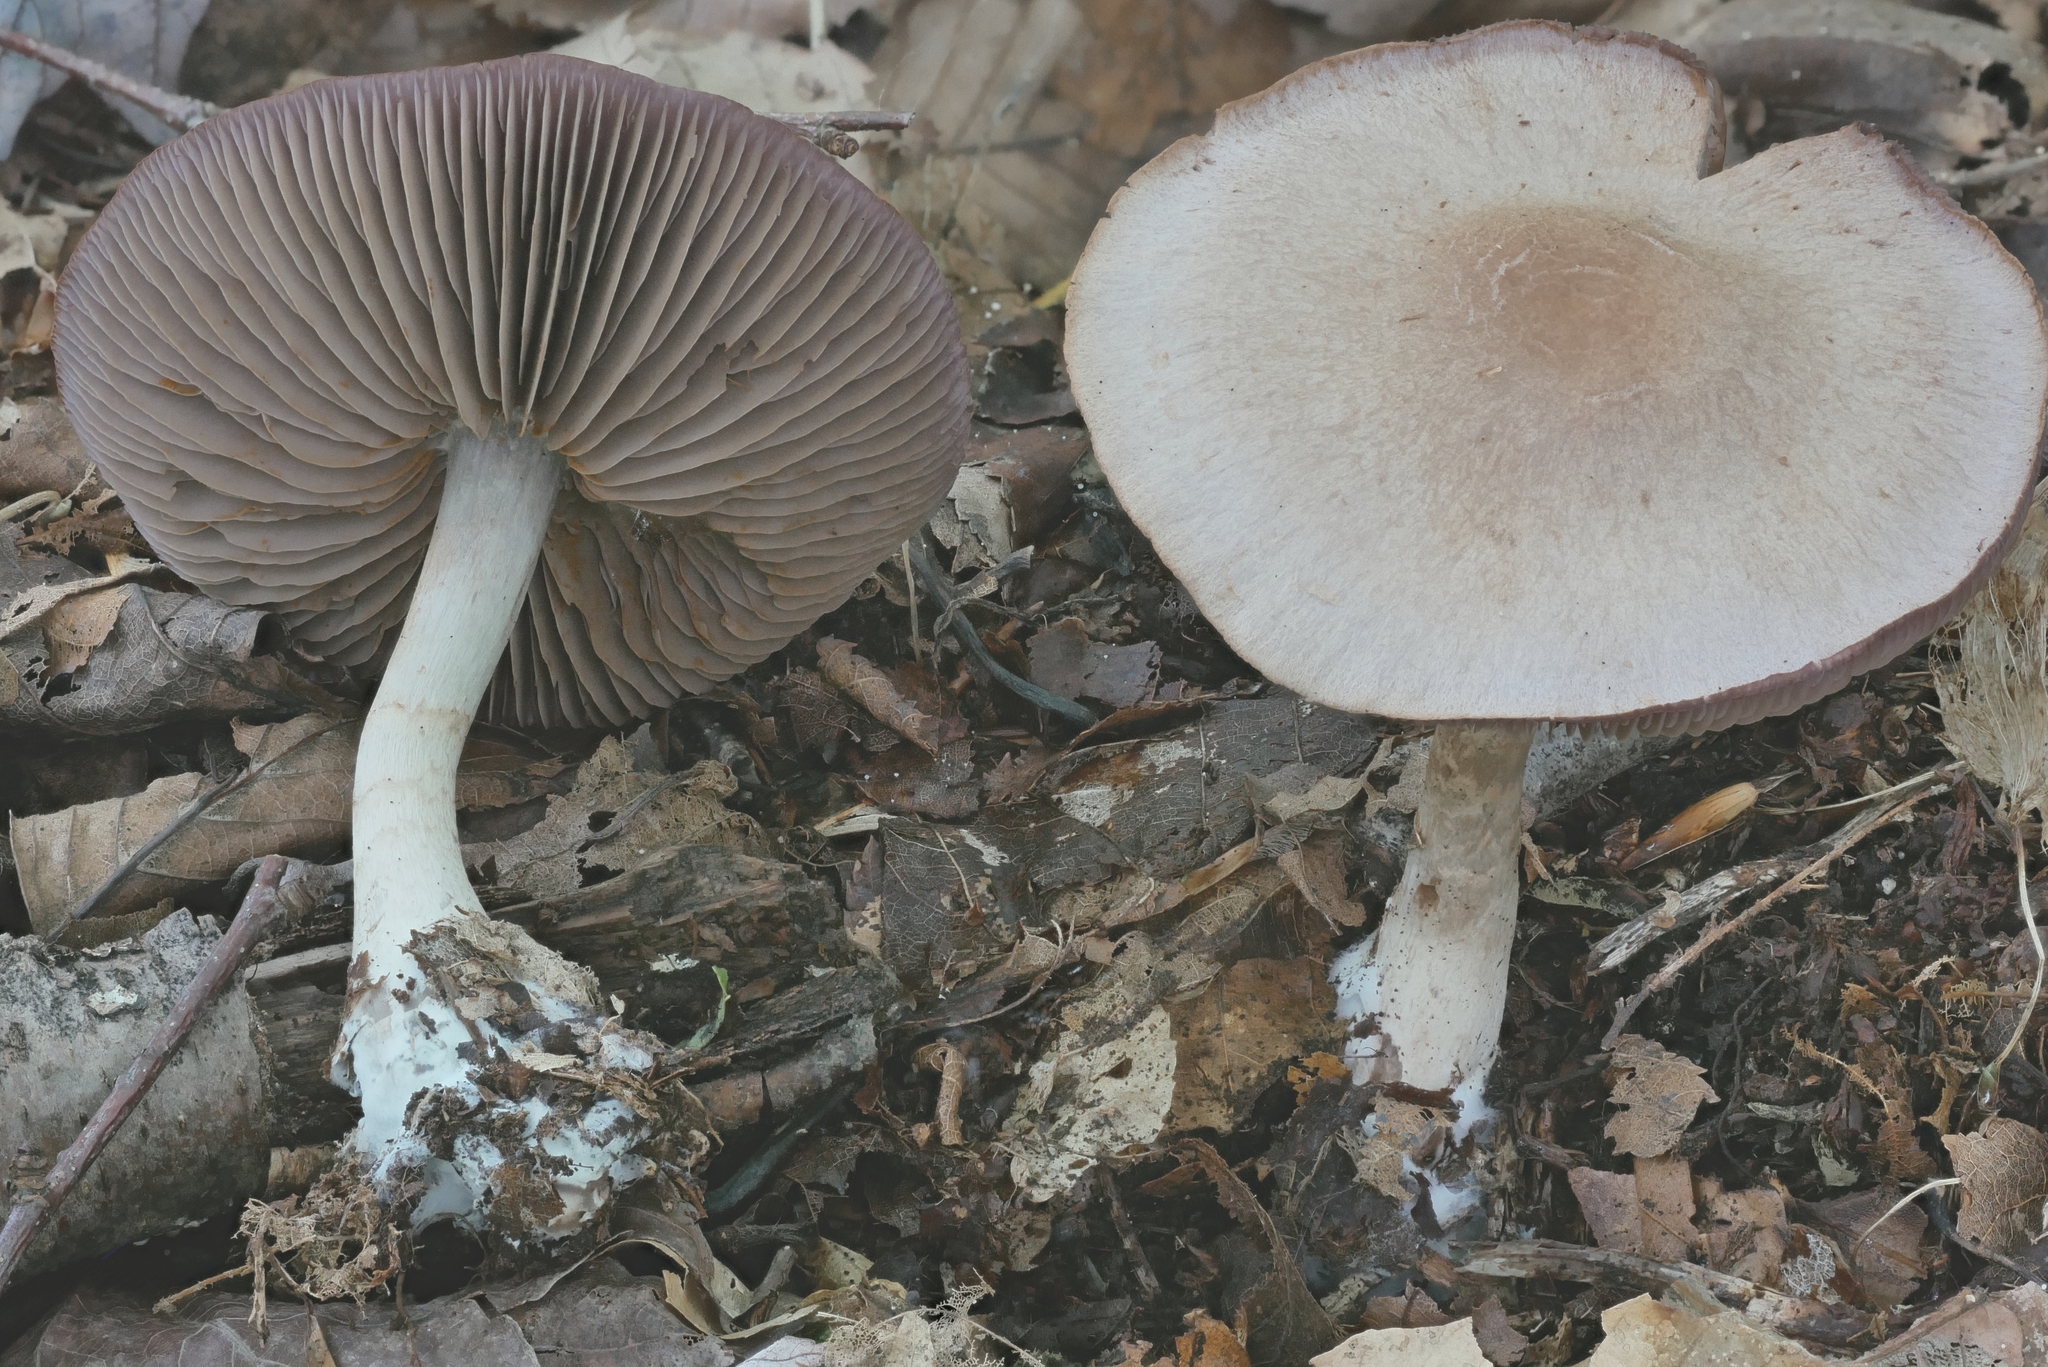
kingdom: Fungi
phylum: Basidiomycota
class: Agaricomycetes
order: Agaricales
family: Cortinariaceae
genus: Cortinarius
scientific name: Cortinarius deceptivus
